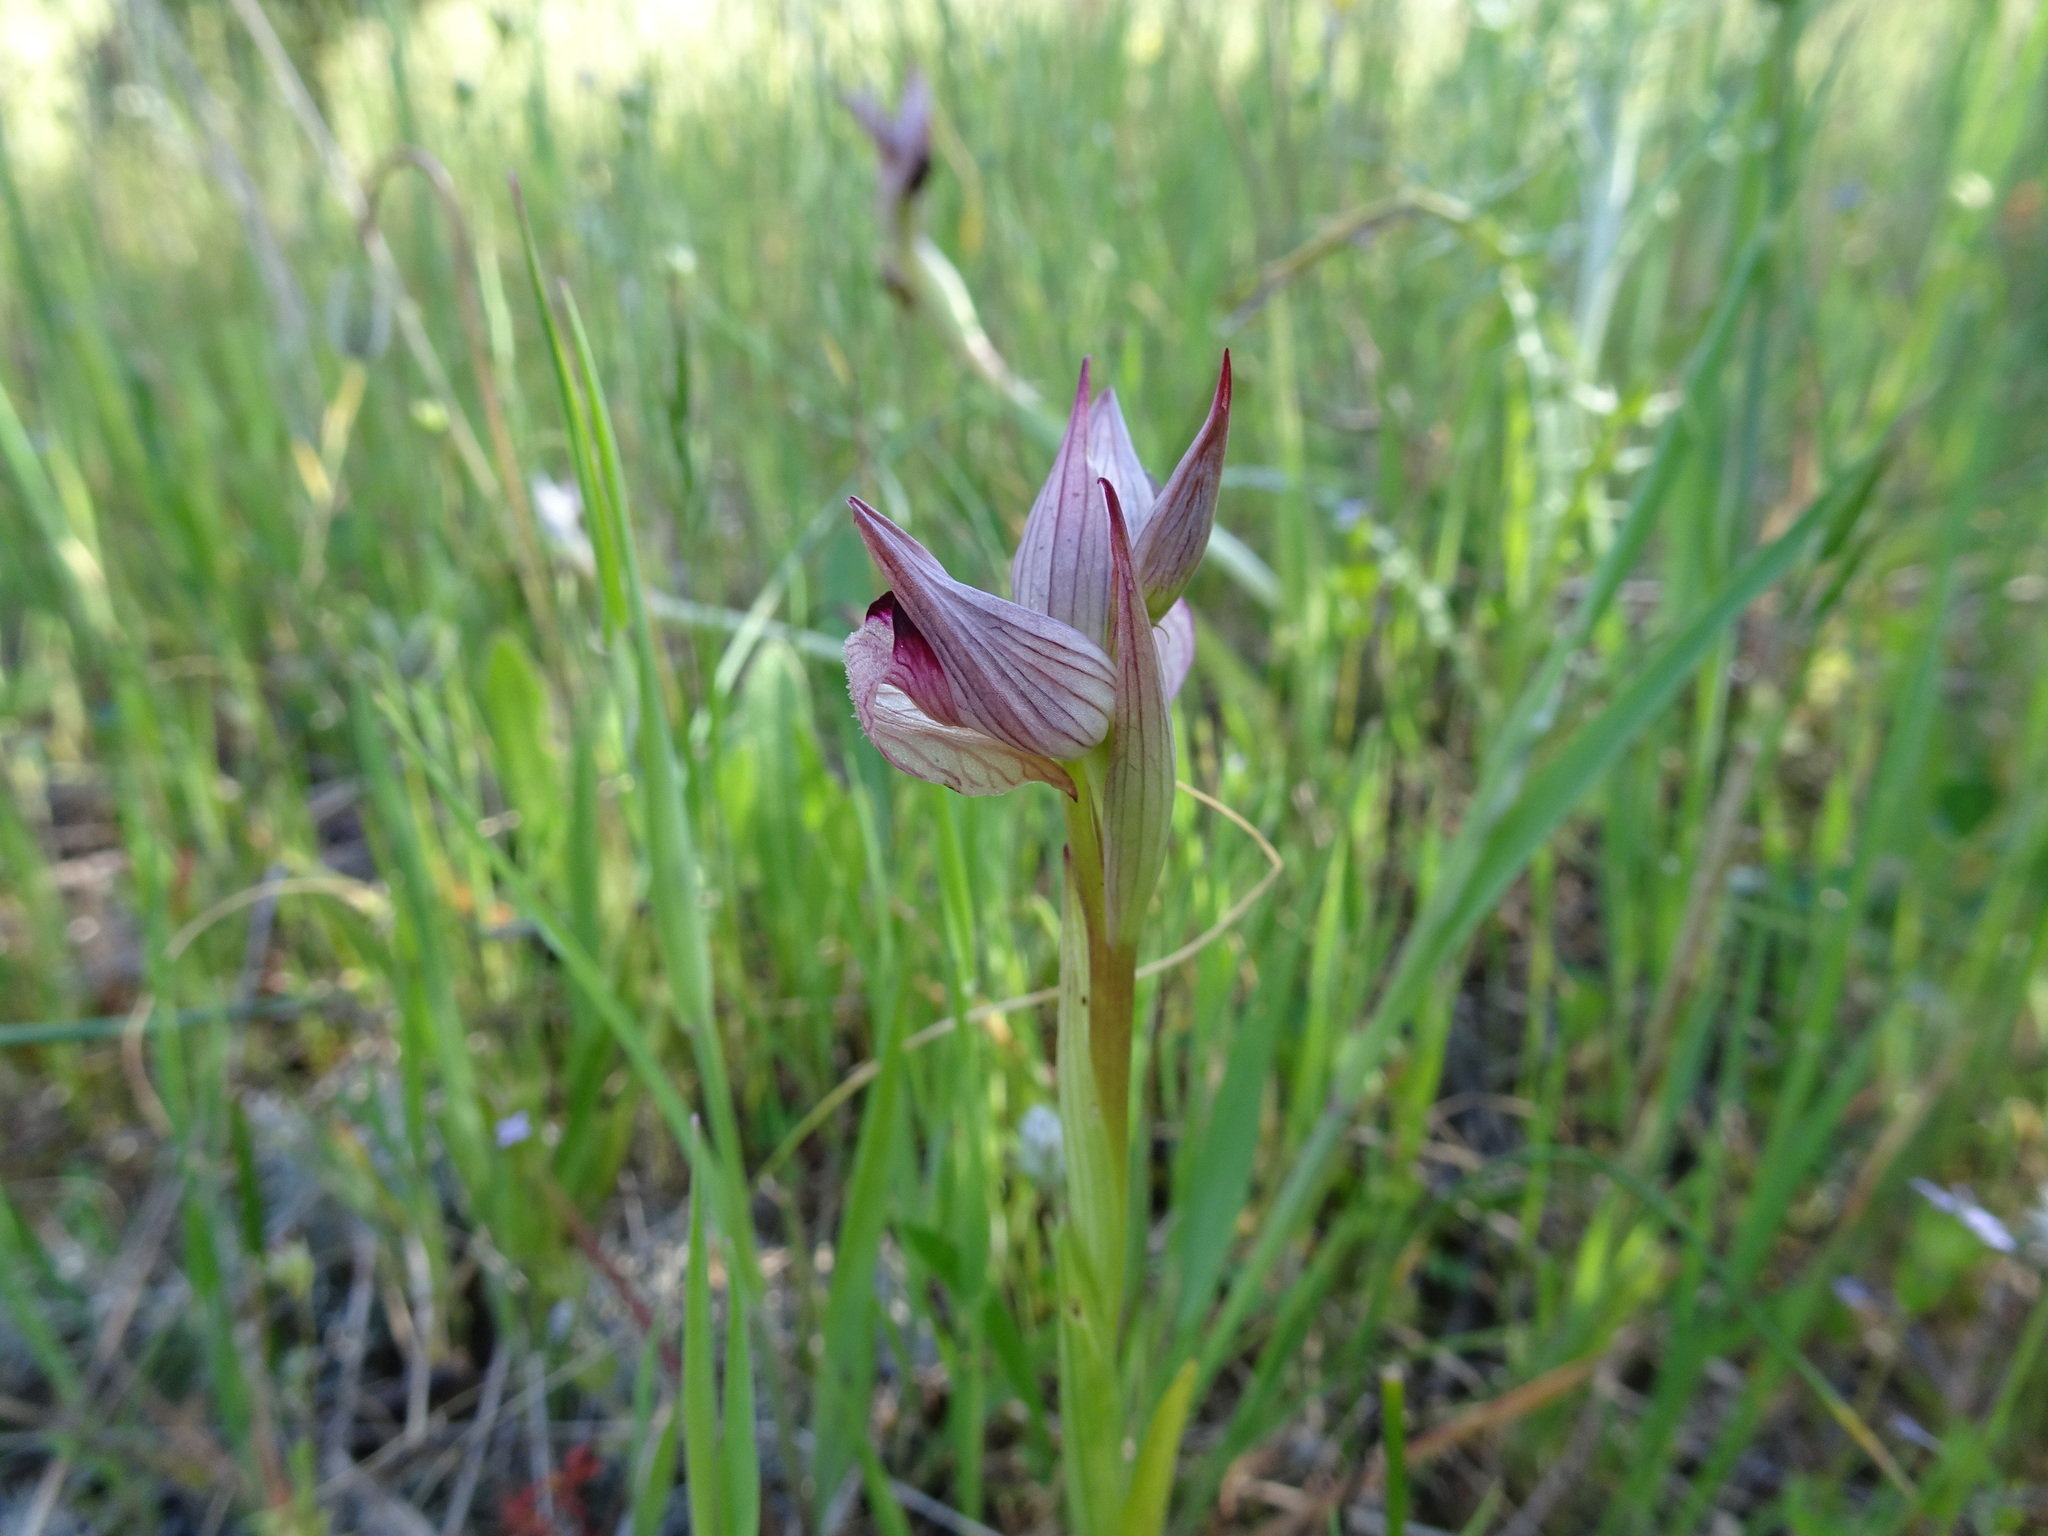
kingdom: Plantae
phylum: Tracheophyta
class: Liliopsida
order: Asparagales
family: Orchidaceae
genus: Serapias
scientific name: Serapias lingua
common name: Tongue-orchid
